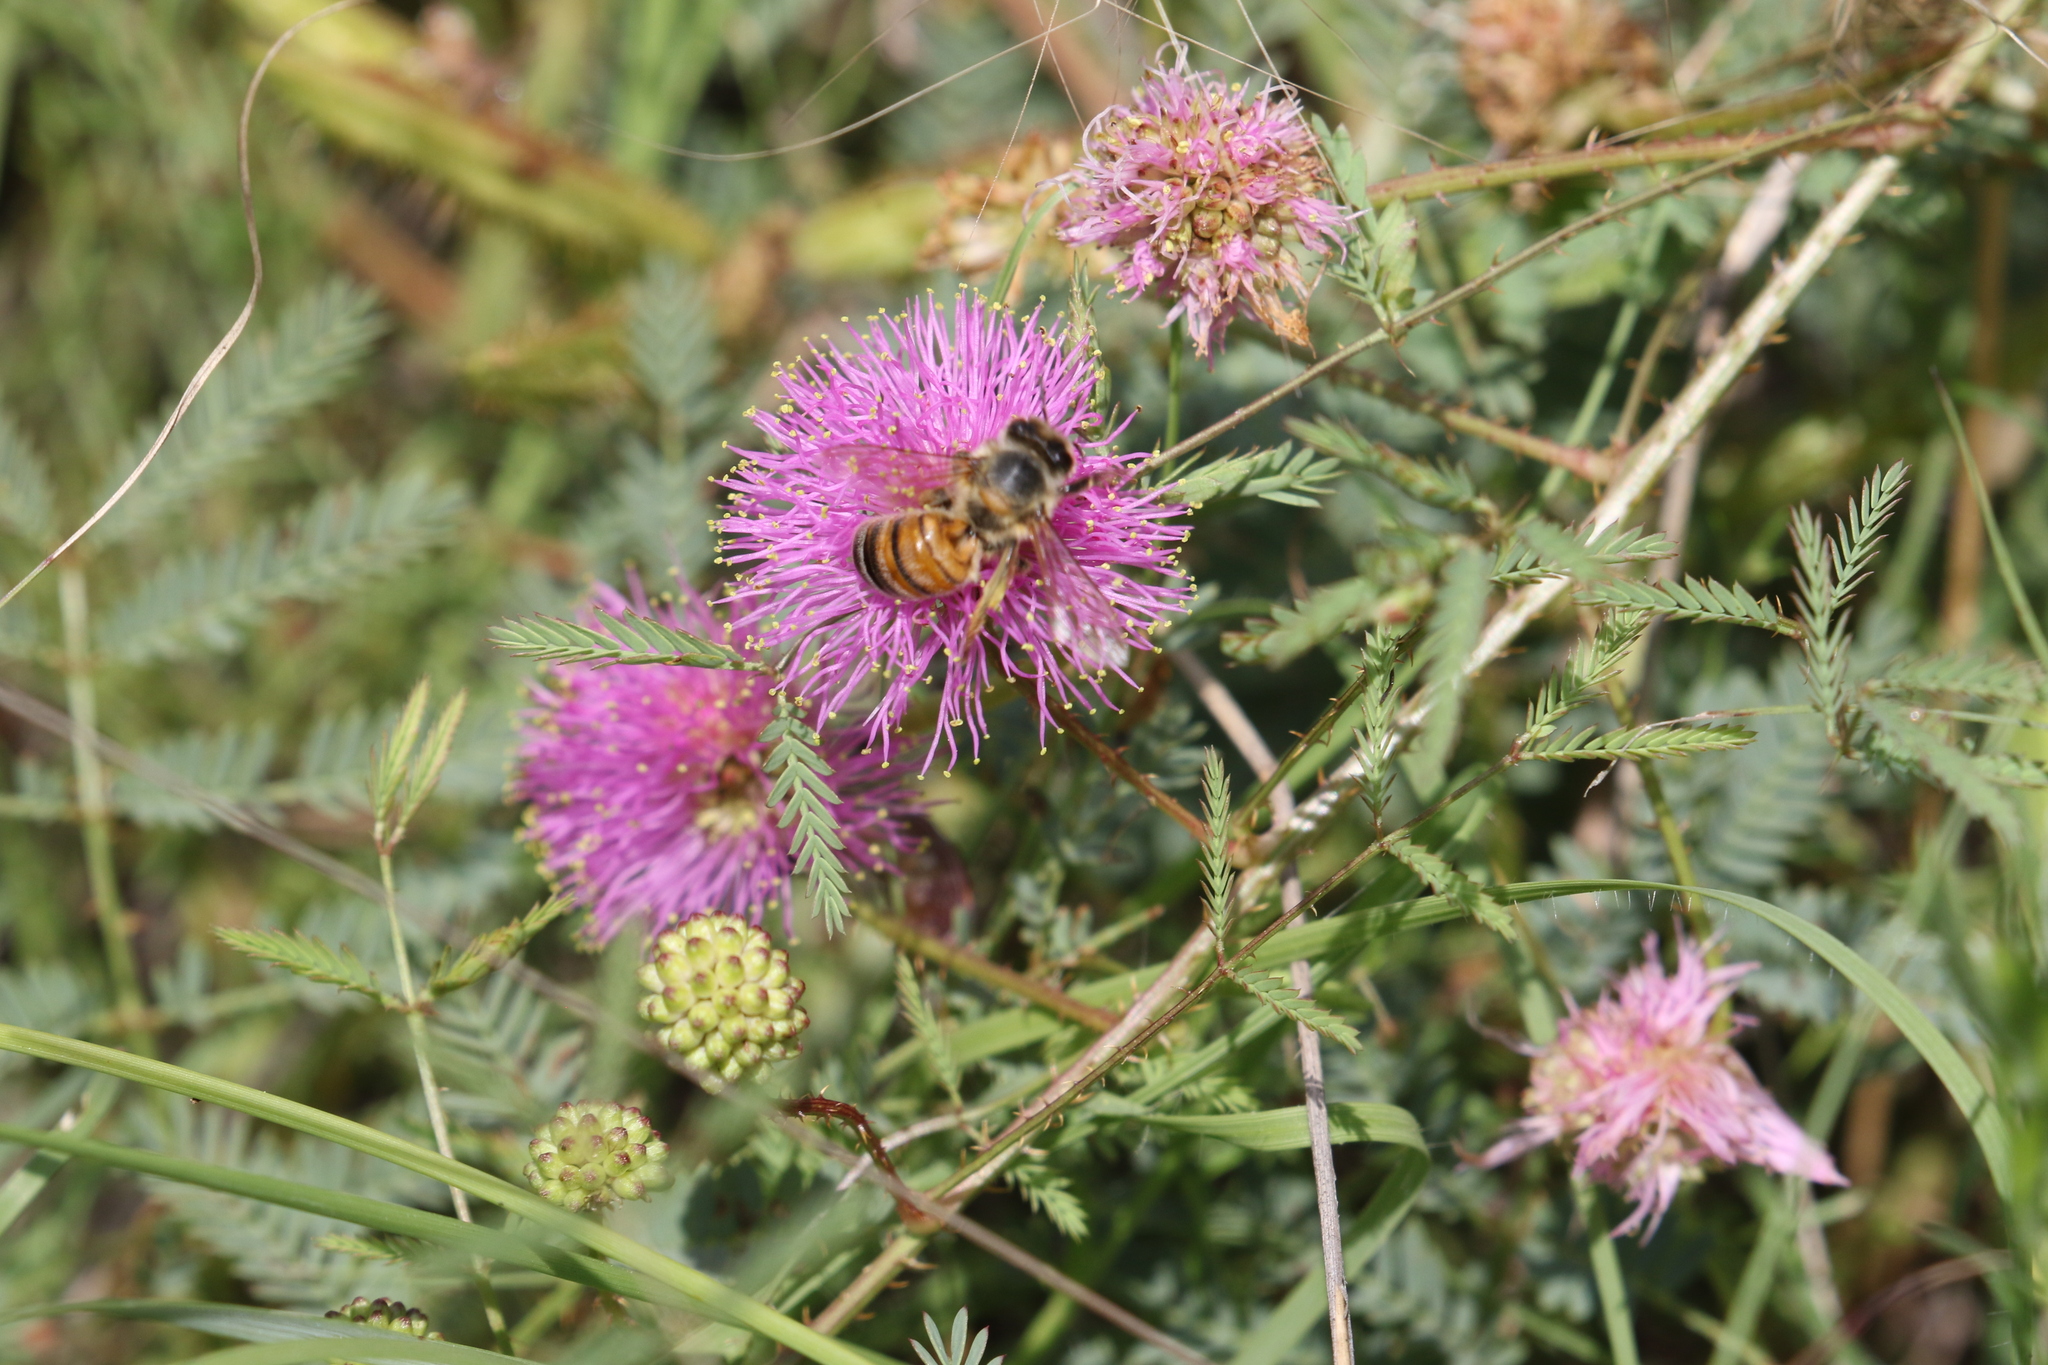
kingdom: Animalia
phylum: Arthropoda
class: Insecta
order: Hymenoptera
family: Apidae
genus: Apis
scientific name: Apis mellifera
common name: Honey bee
